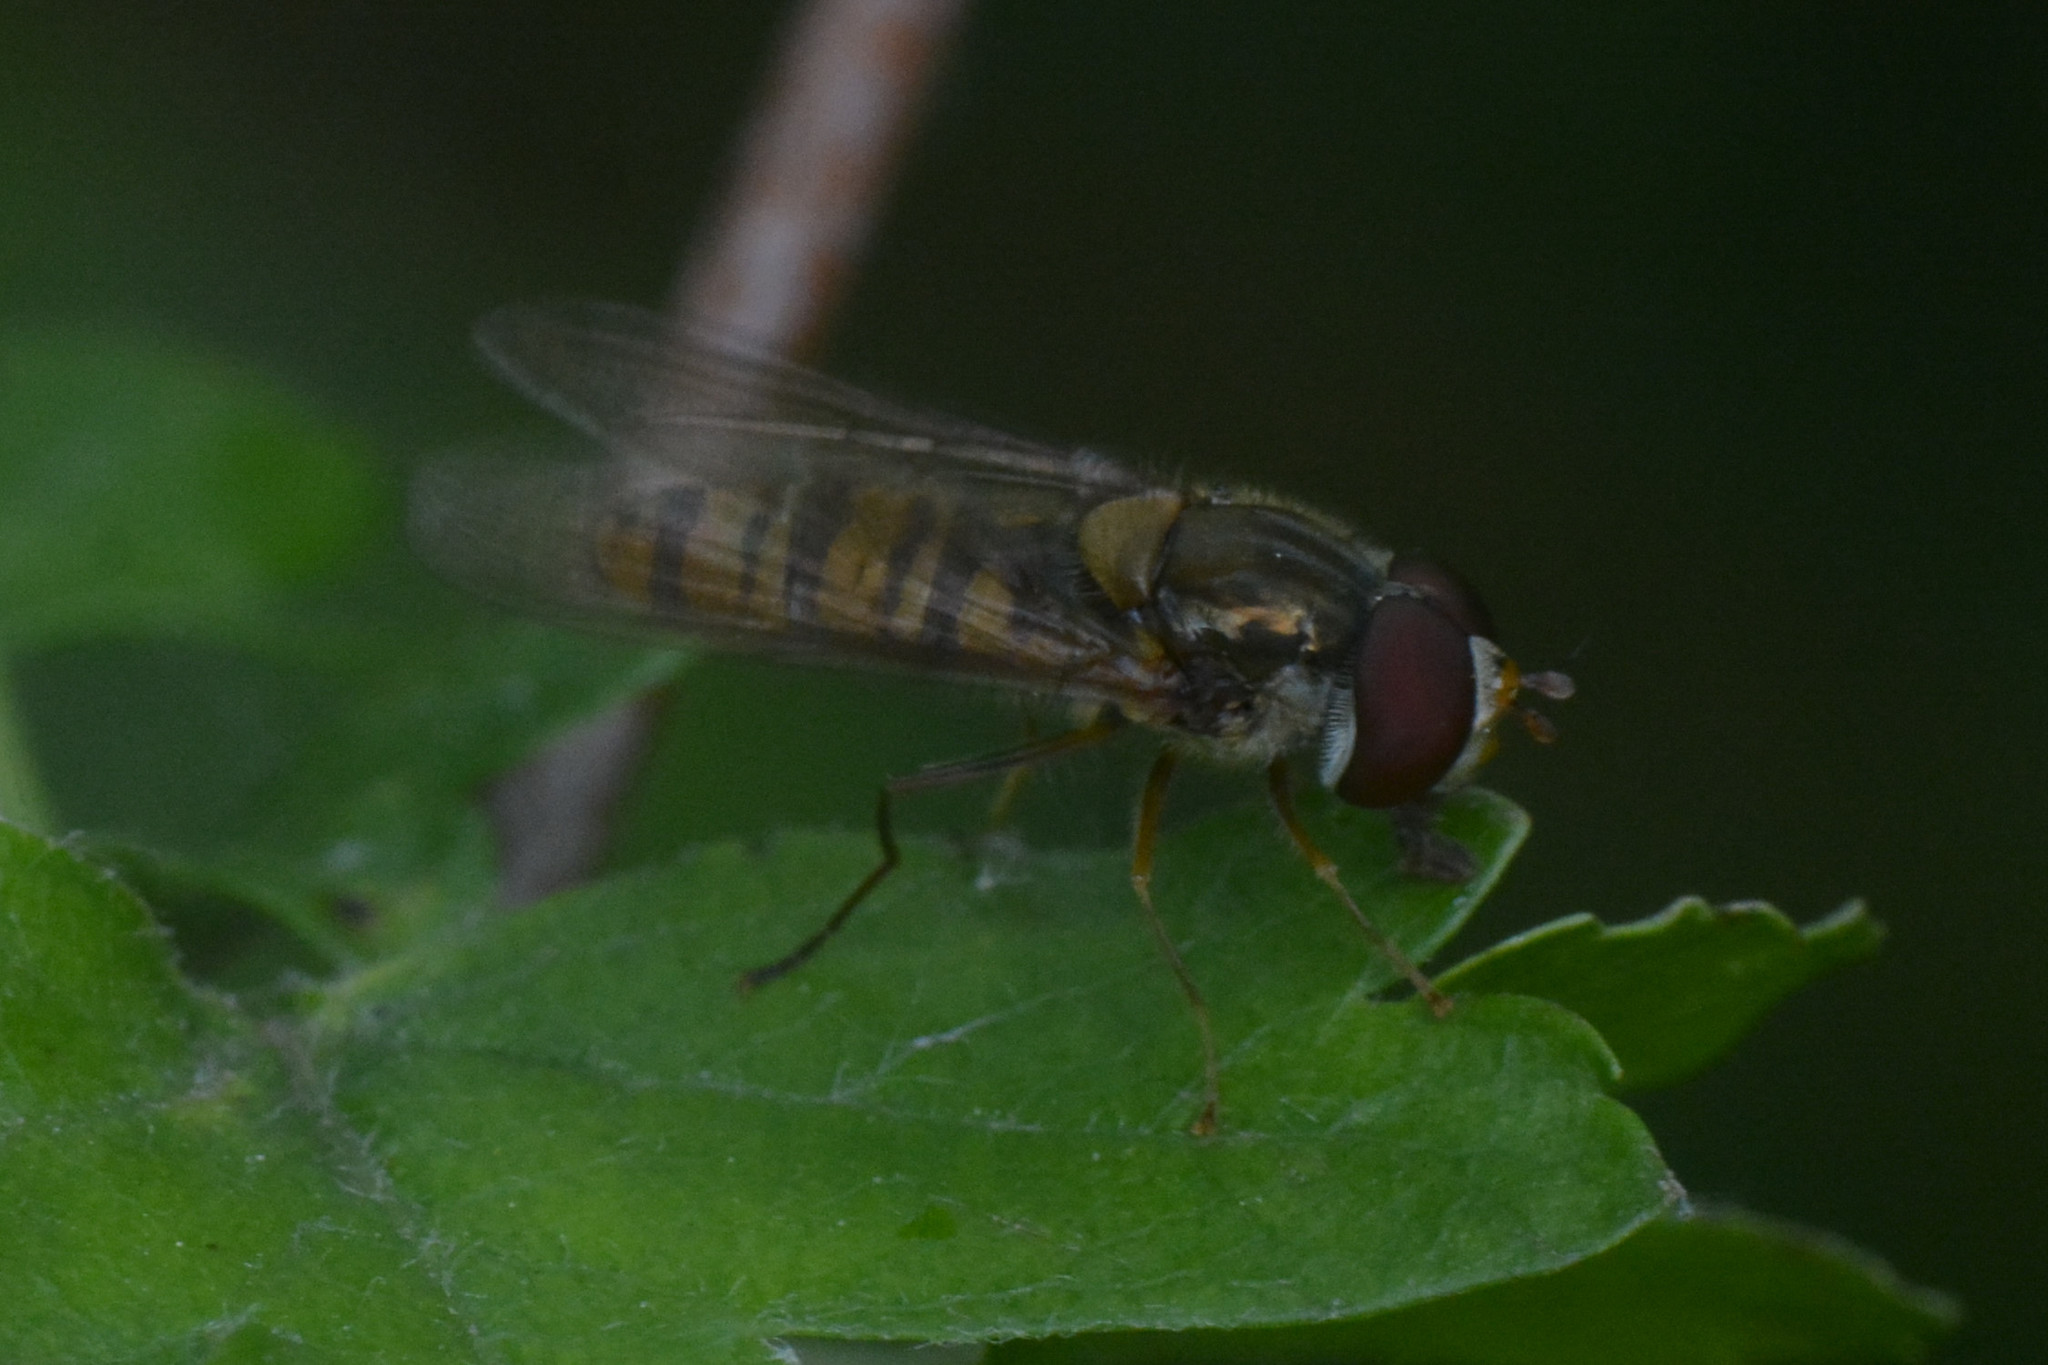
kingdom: Animalia
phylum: Arthropoda
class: Insecta
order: Diptera
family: Syrphidae
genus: Episyrphus
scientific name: Episyrphus balteatus
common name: Marmalade hoverfly
